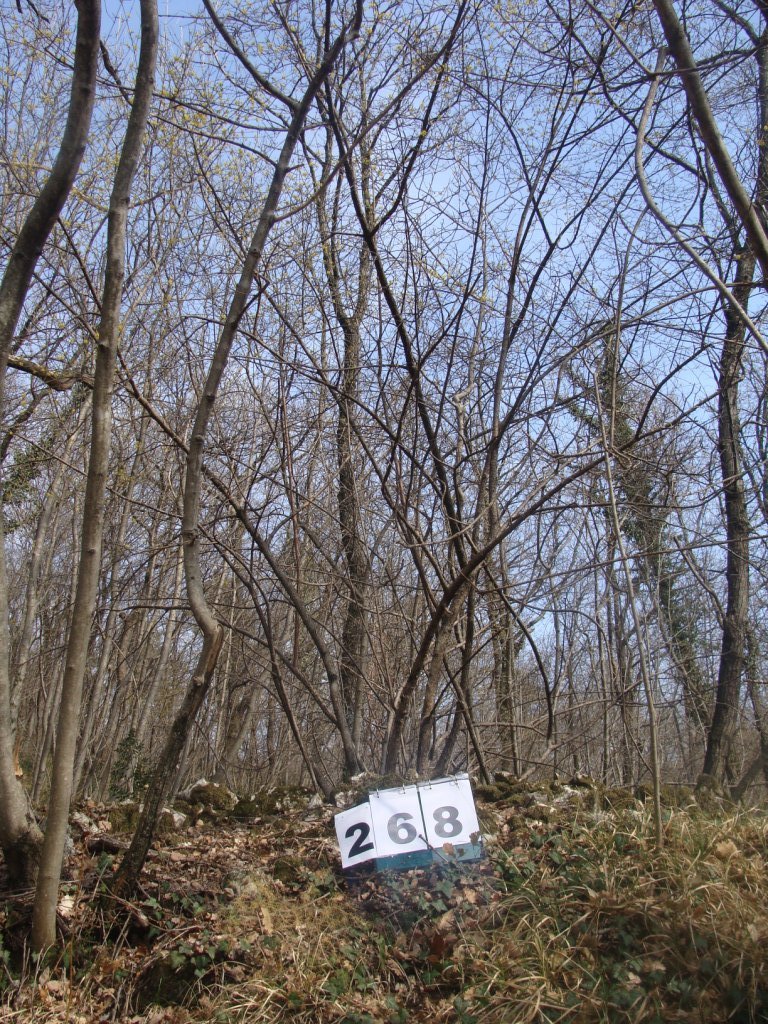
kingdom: Plantae
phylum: Tracheophyta
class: Magnoliopsida
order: Cornales
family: Cornaceae
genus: Cornus
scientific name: Cornus mas
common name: Cornelian-cherry
